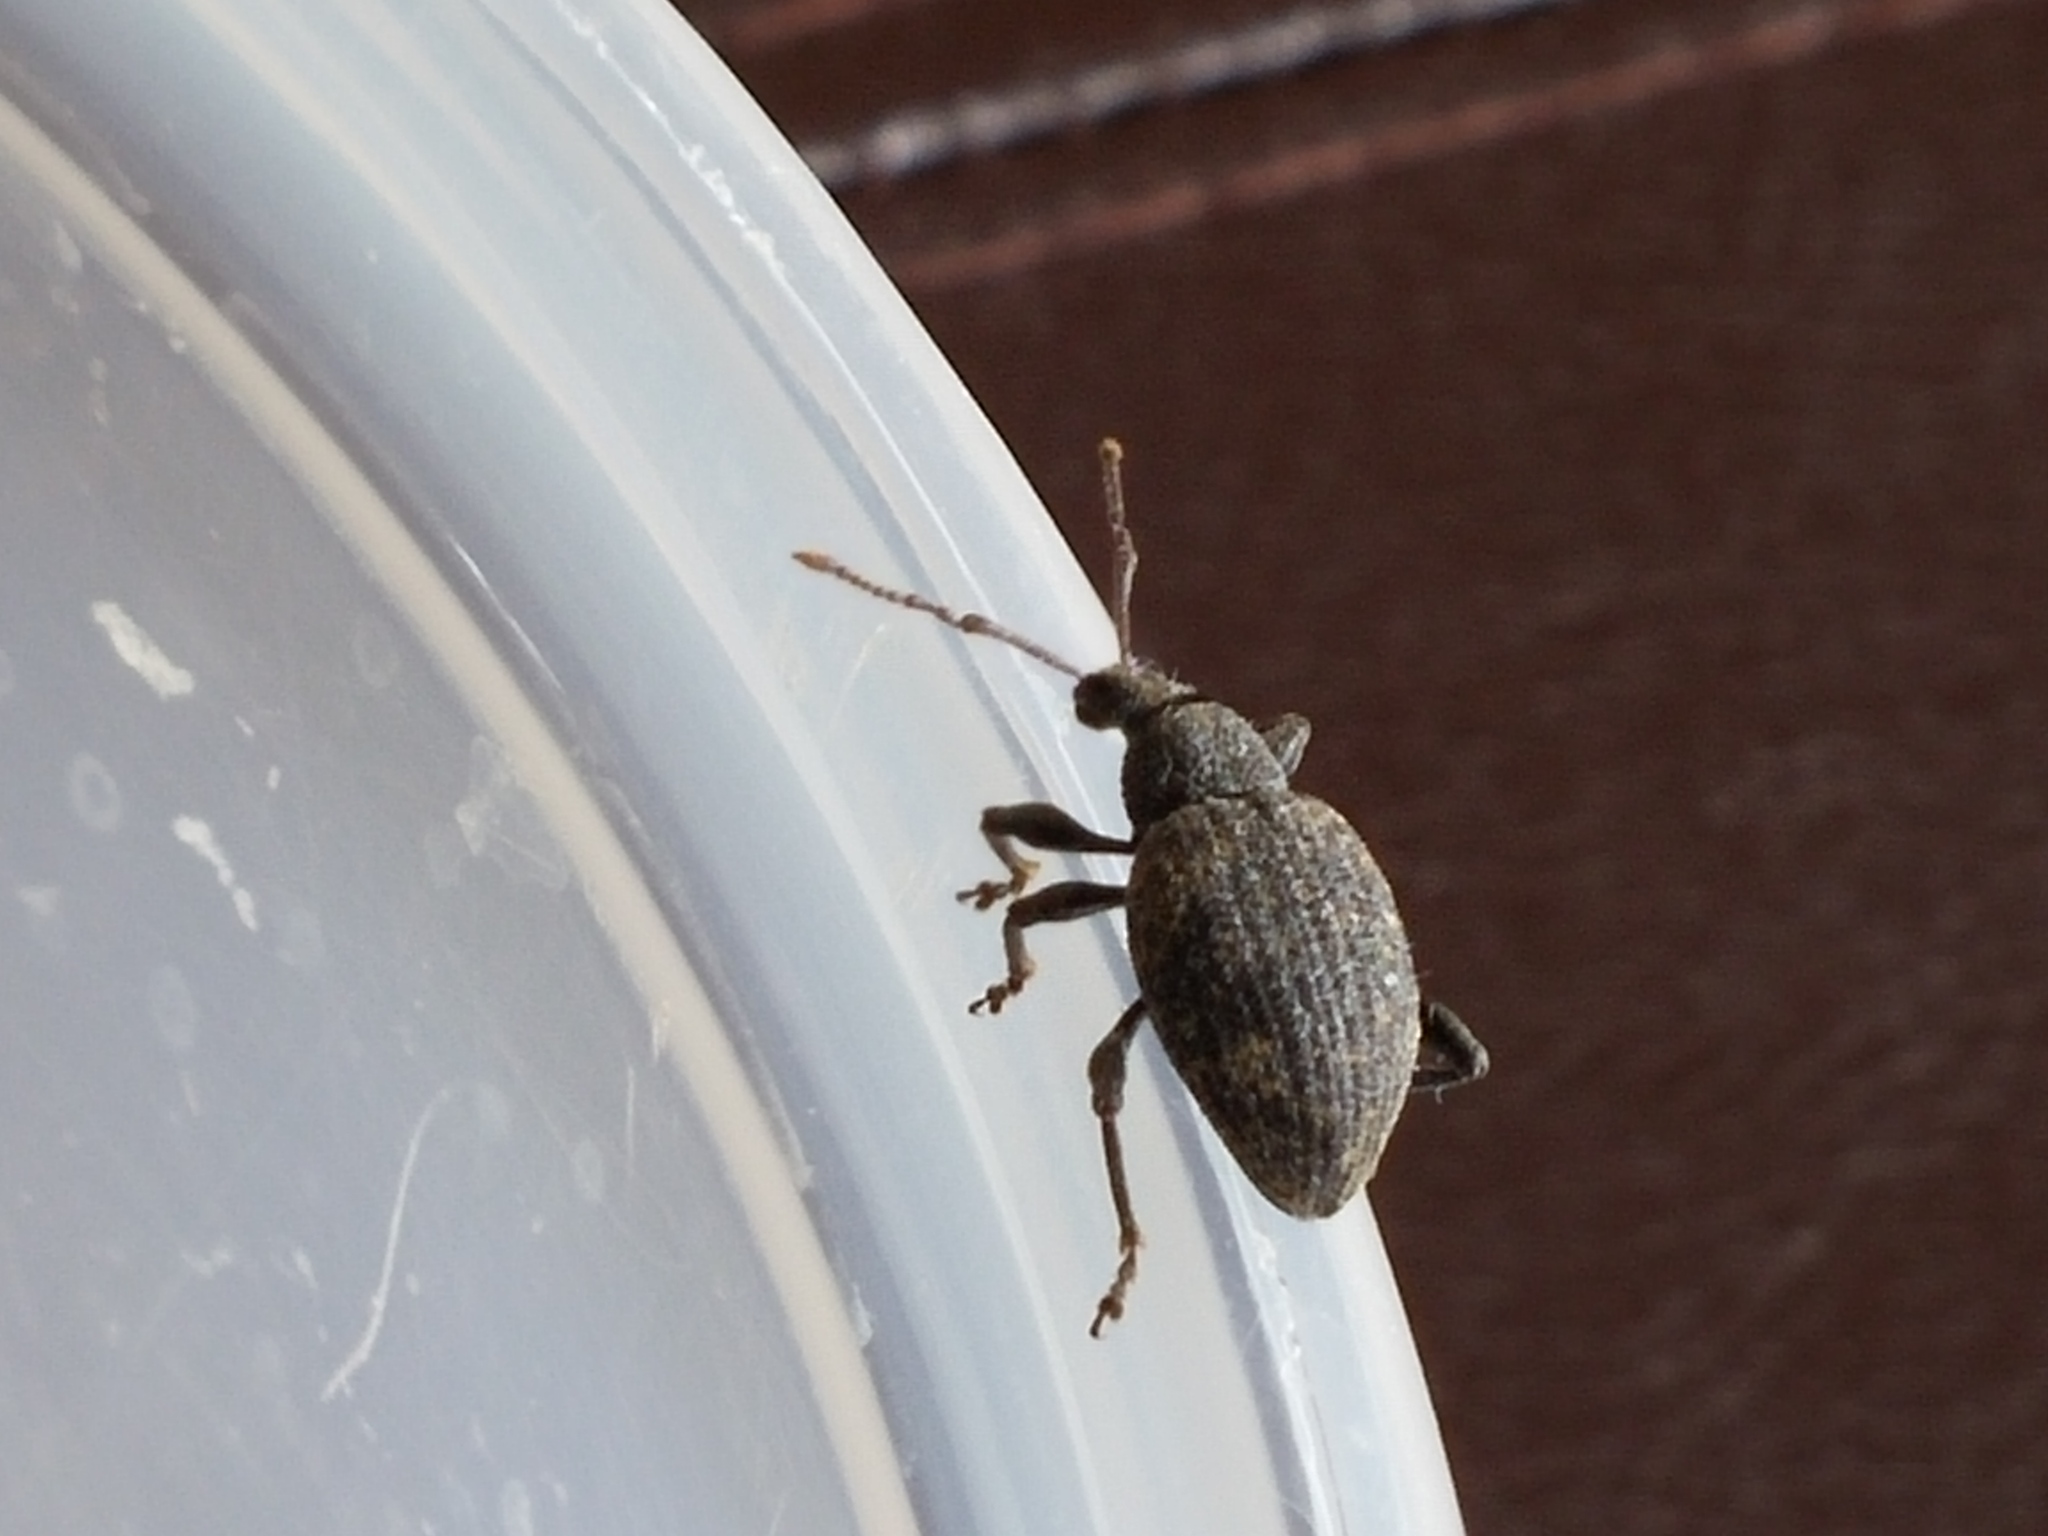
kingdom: Animalia
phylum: Arthropoda
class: Insecta
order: Coleoptera
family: Curculionidae
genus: Otiorhynchus
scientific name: Otiorhynchus sulcatus
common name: Black vine weevil
